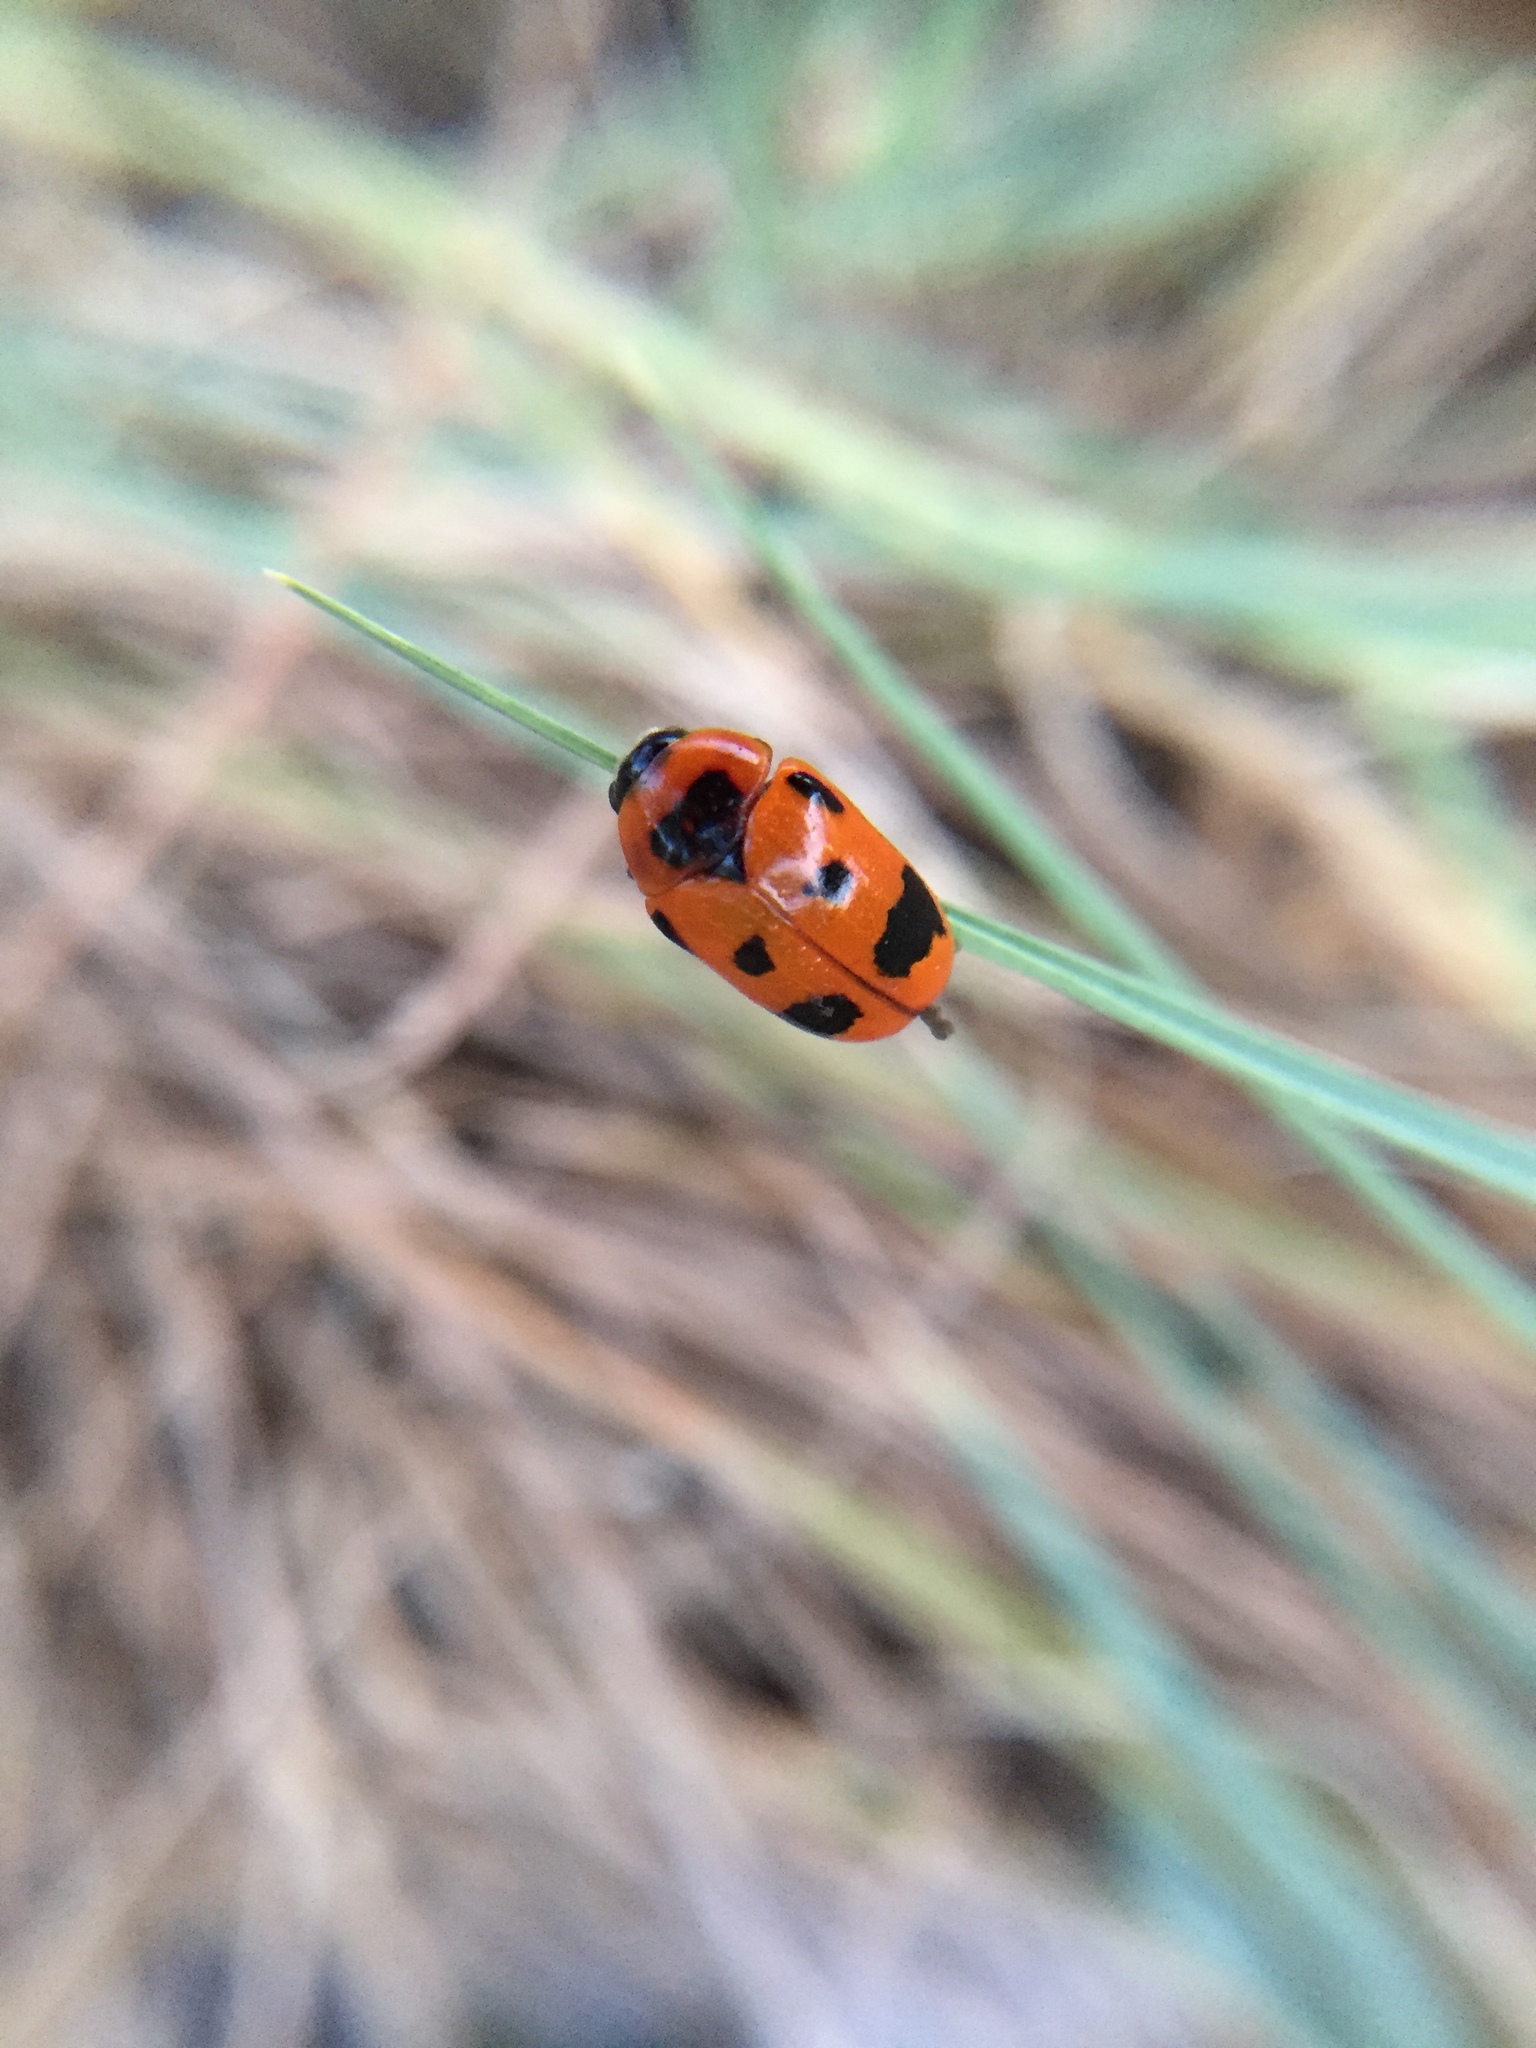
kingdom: Animalia
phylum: Arthropoda
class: Insecta
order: Coleoptera
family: Chrysomelidae
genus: Clytra
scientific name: Clytra atraphaxidis
